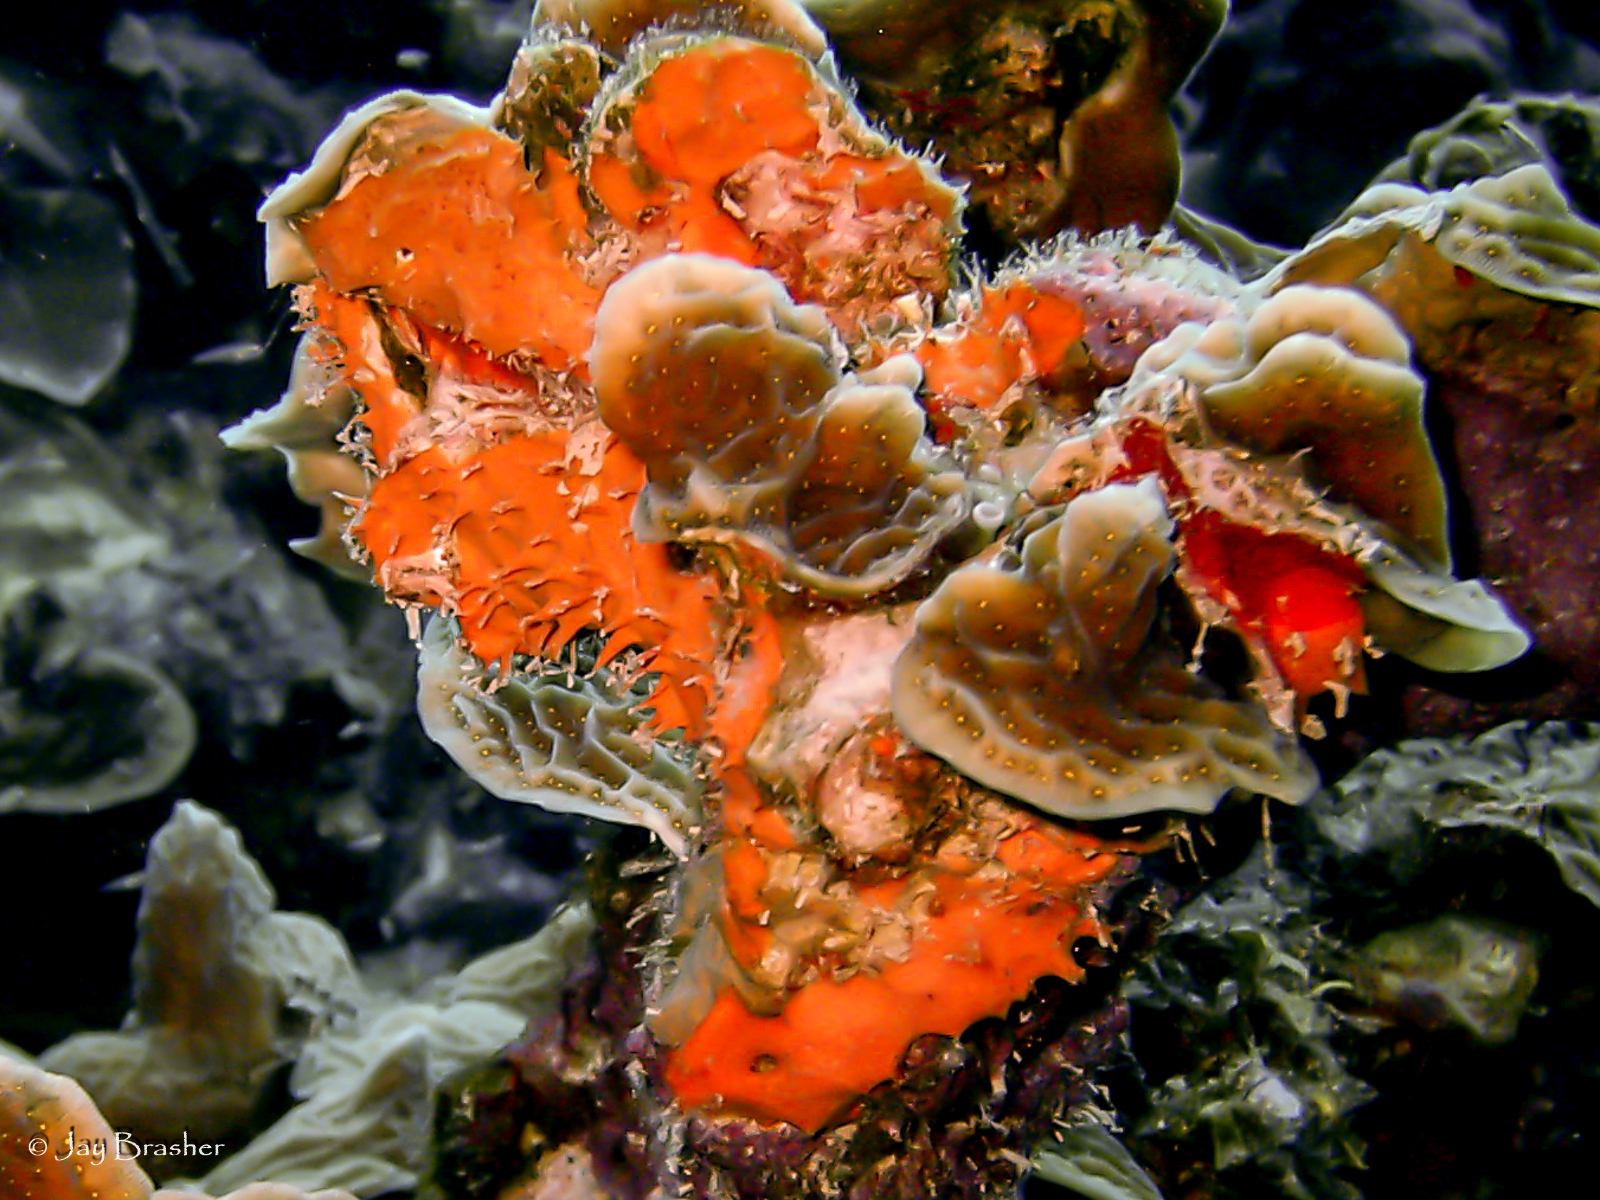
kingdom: Animalia
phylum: Porifera
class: Demospongiae
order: Scopalinida
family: Scopalinidae
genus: Scopalina
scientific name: Scopalina ruetzleri
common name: Orange lumpy encrusting sponge
